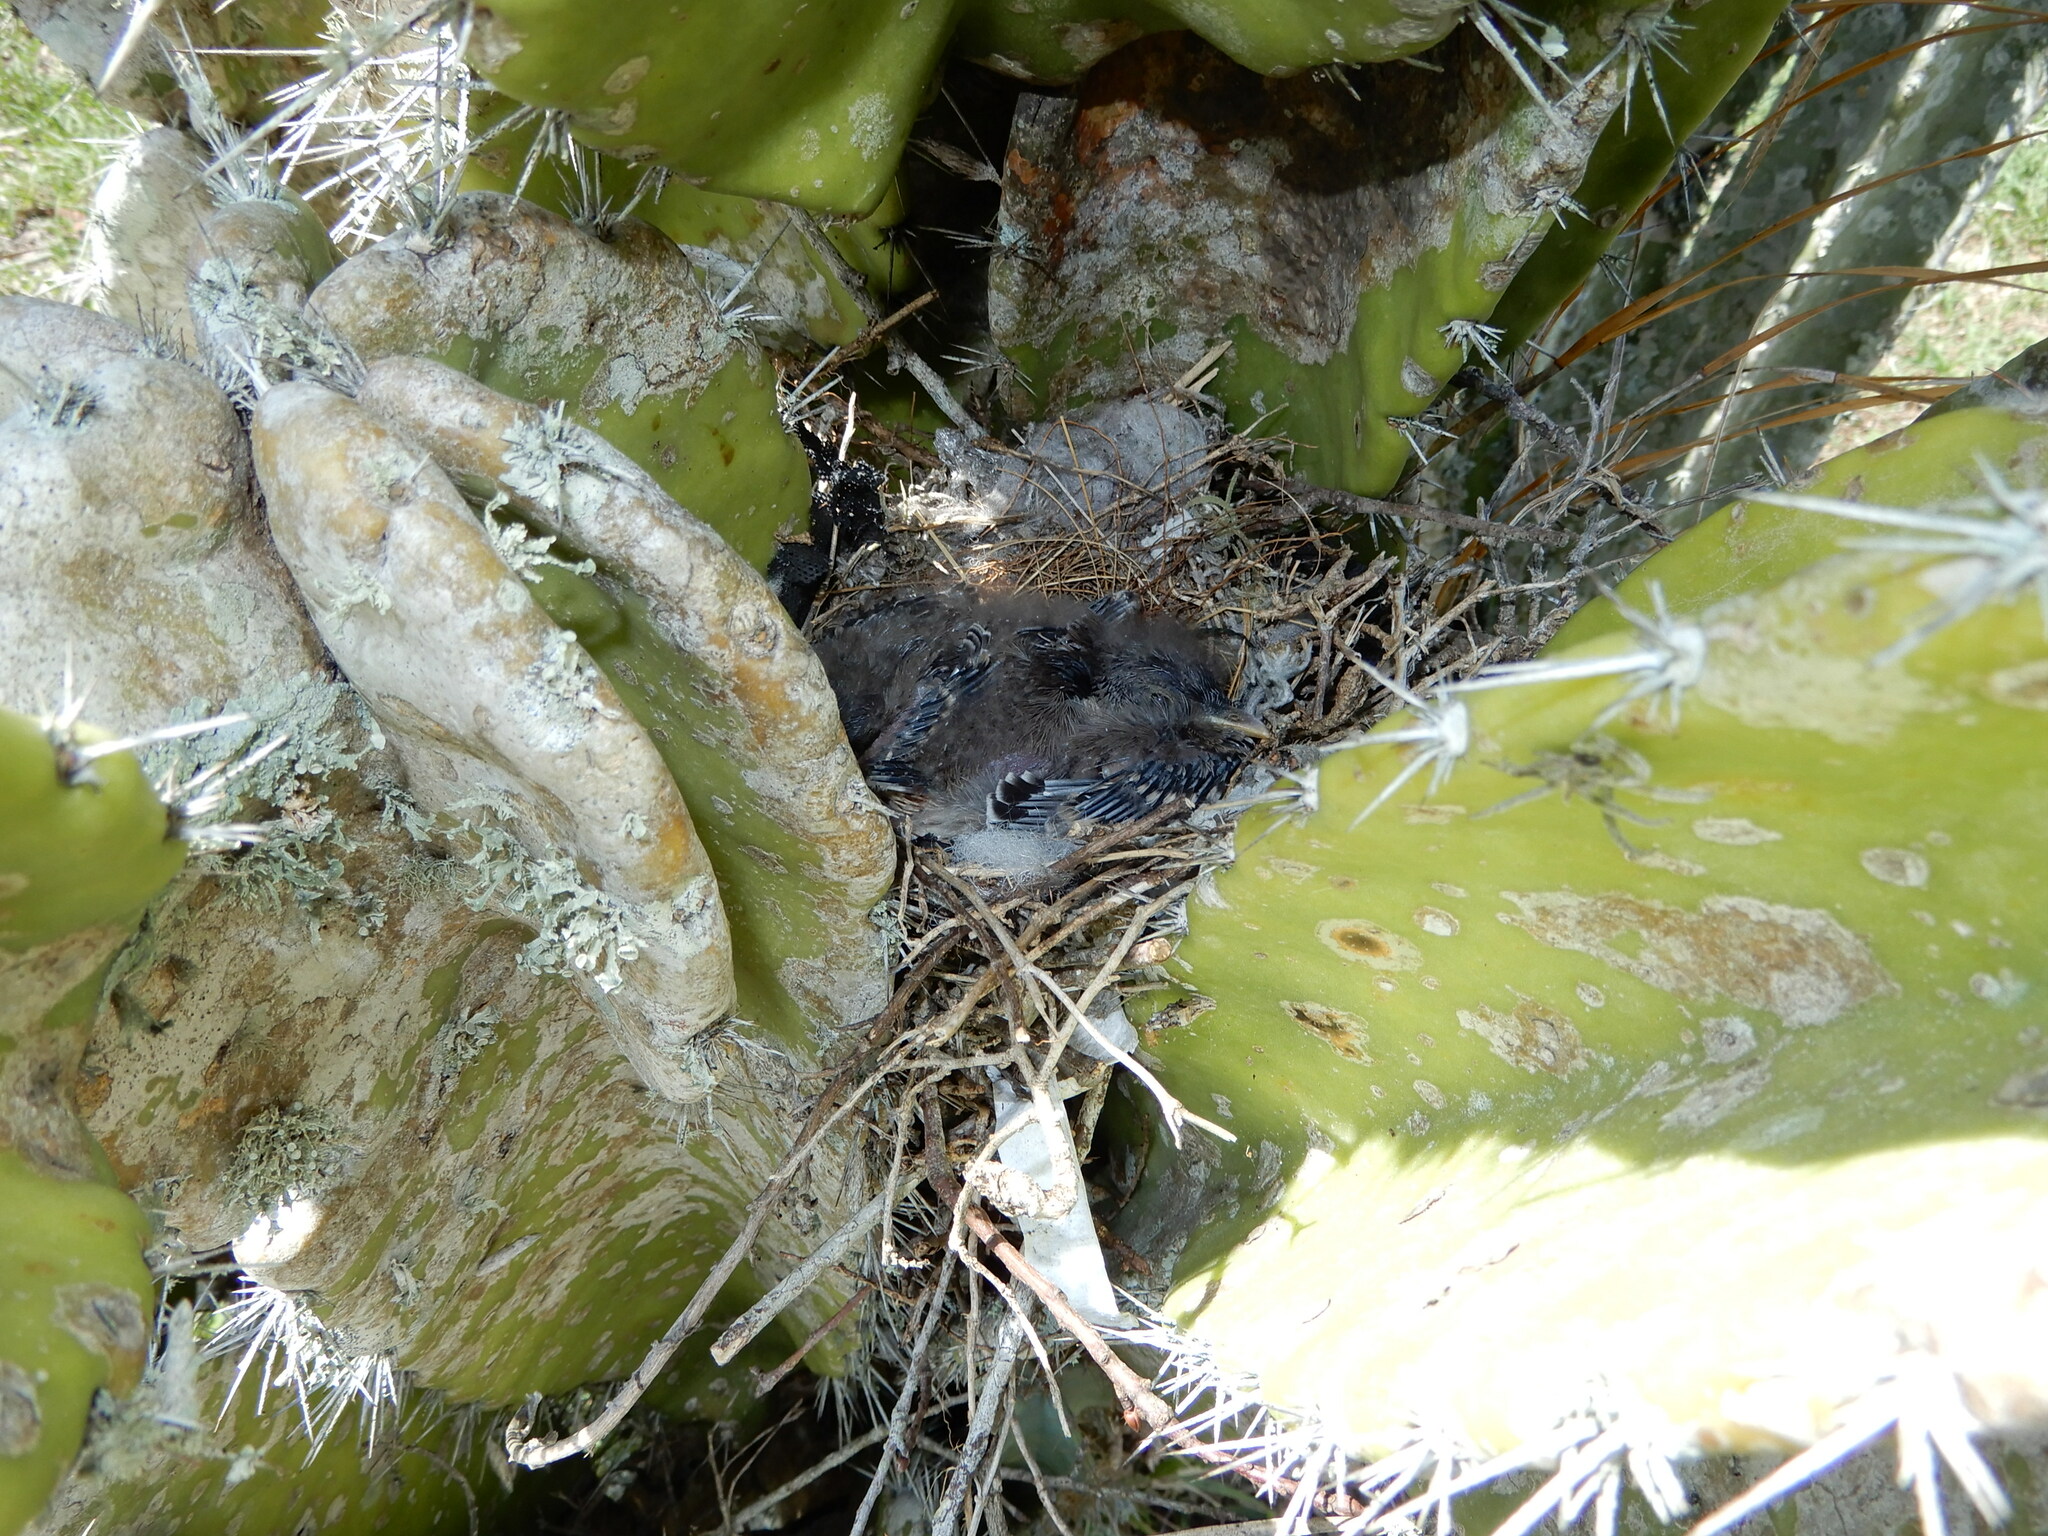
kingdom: Animalia
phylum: Chordata
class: Aves
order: Passeriformes
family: Mimidae
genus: Mimus
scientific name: Mimus polyglottos
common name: Northern mockingbird
